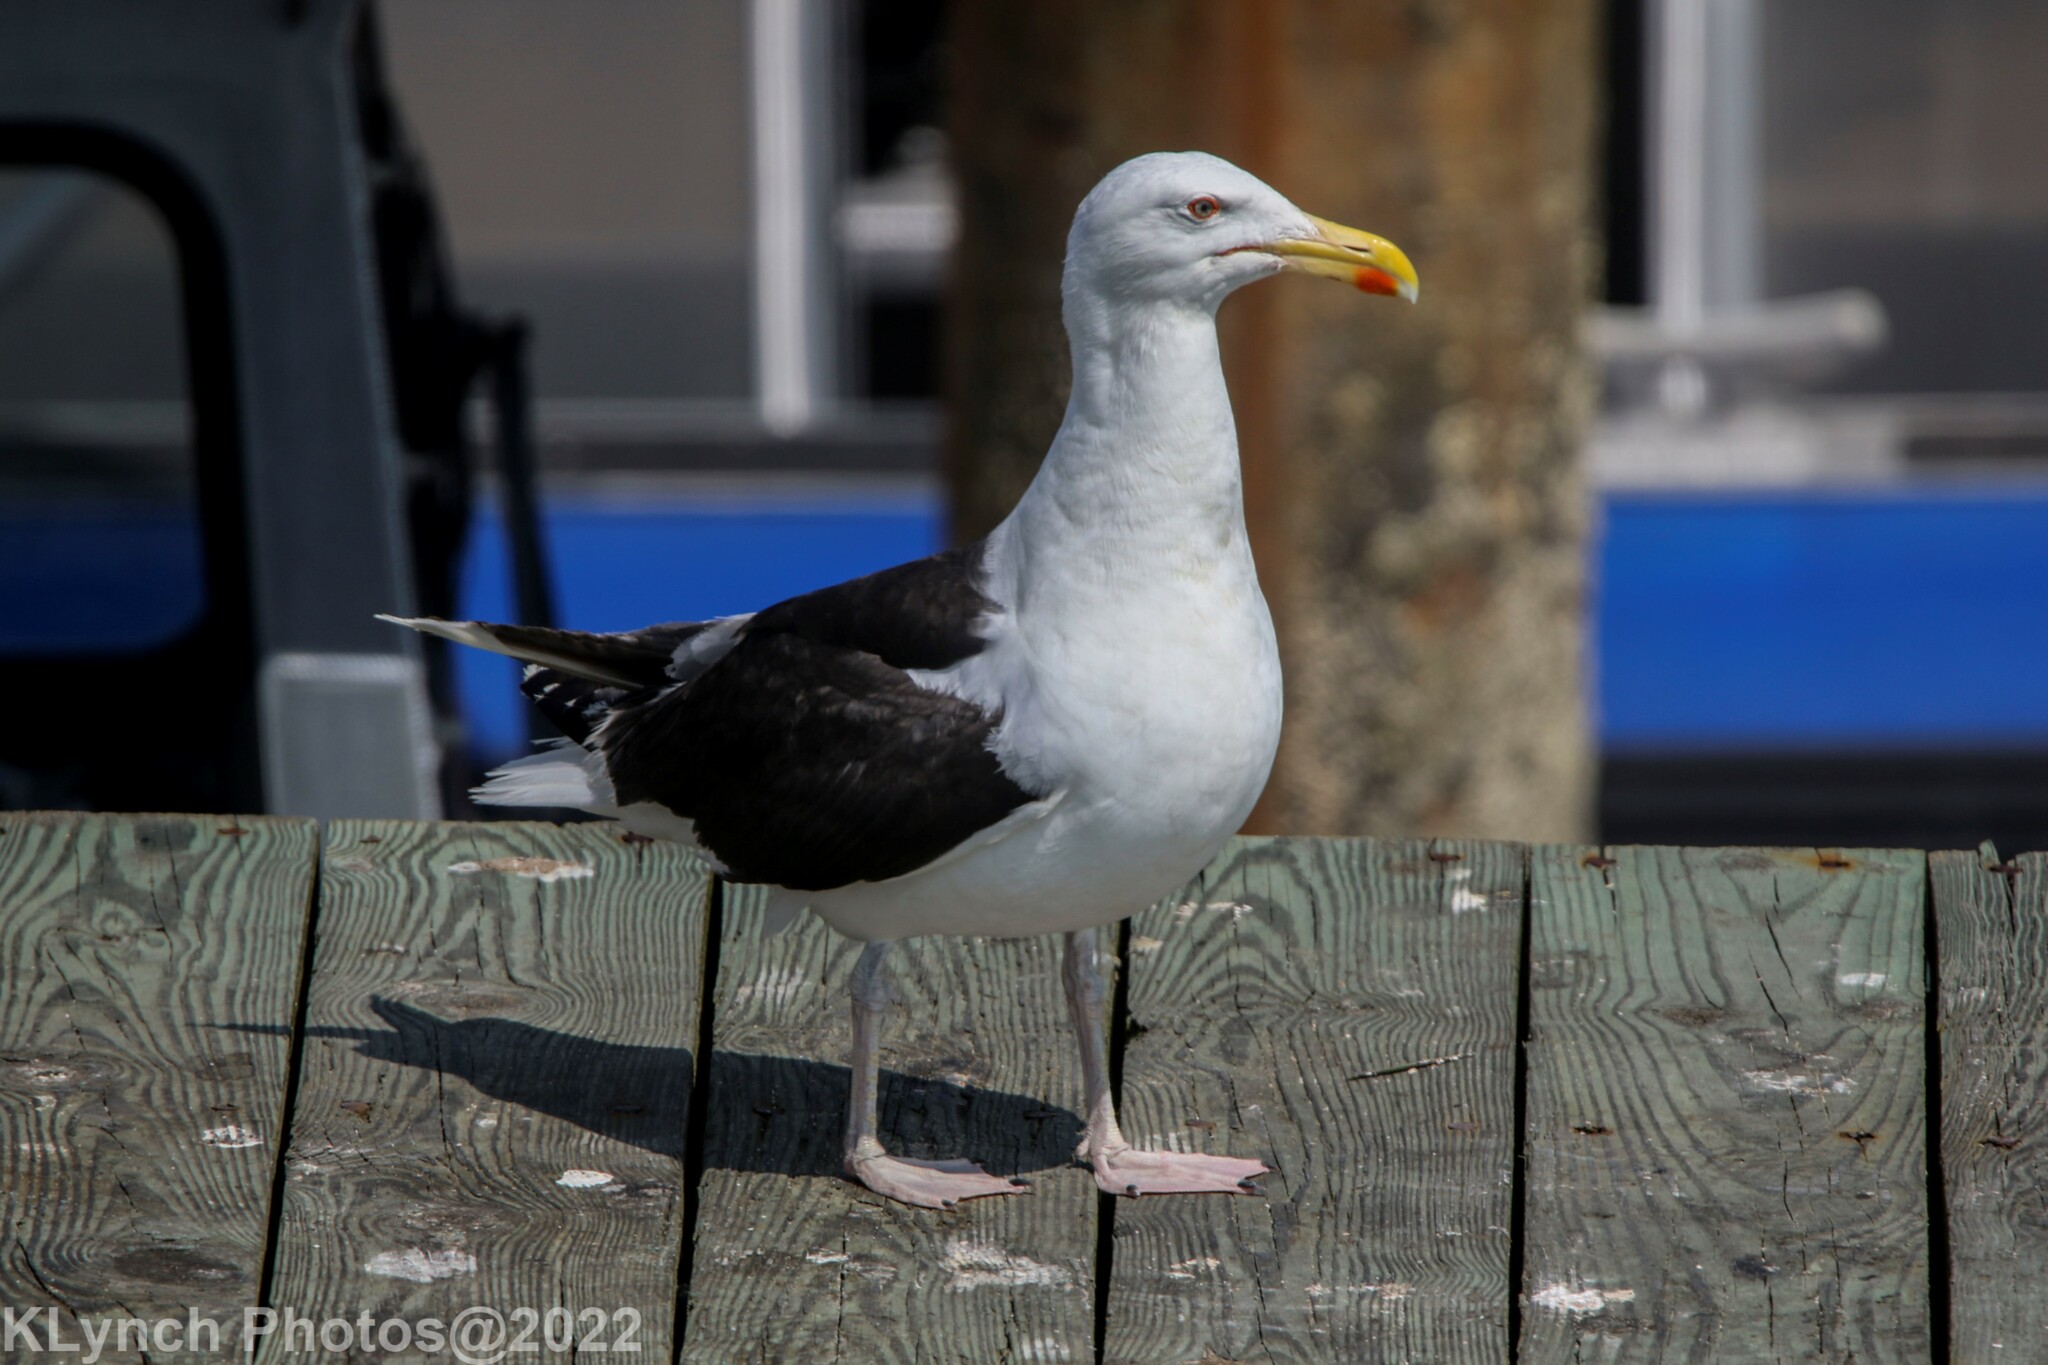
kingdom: Animalia
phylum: Chordata
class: Aves
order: Charadriiformes
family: Laridae
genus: Larus
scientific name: Larus marinus
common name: Great black-backed gull
